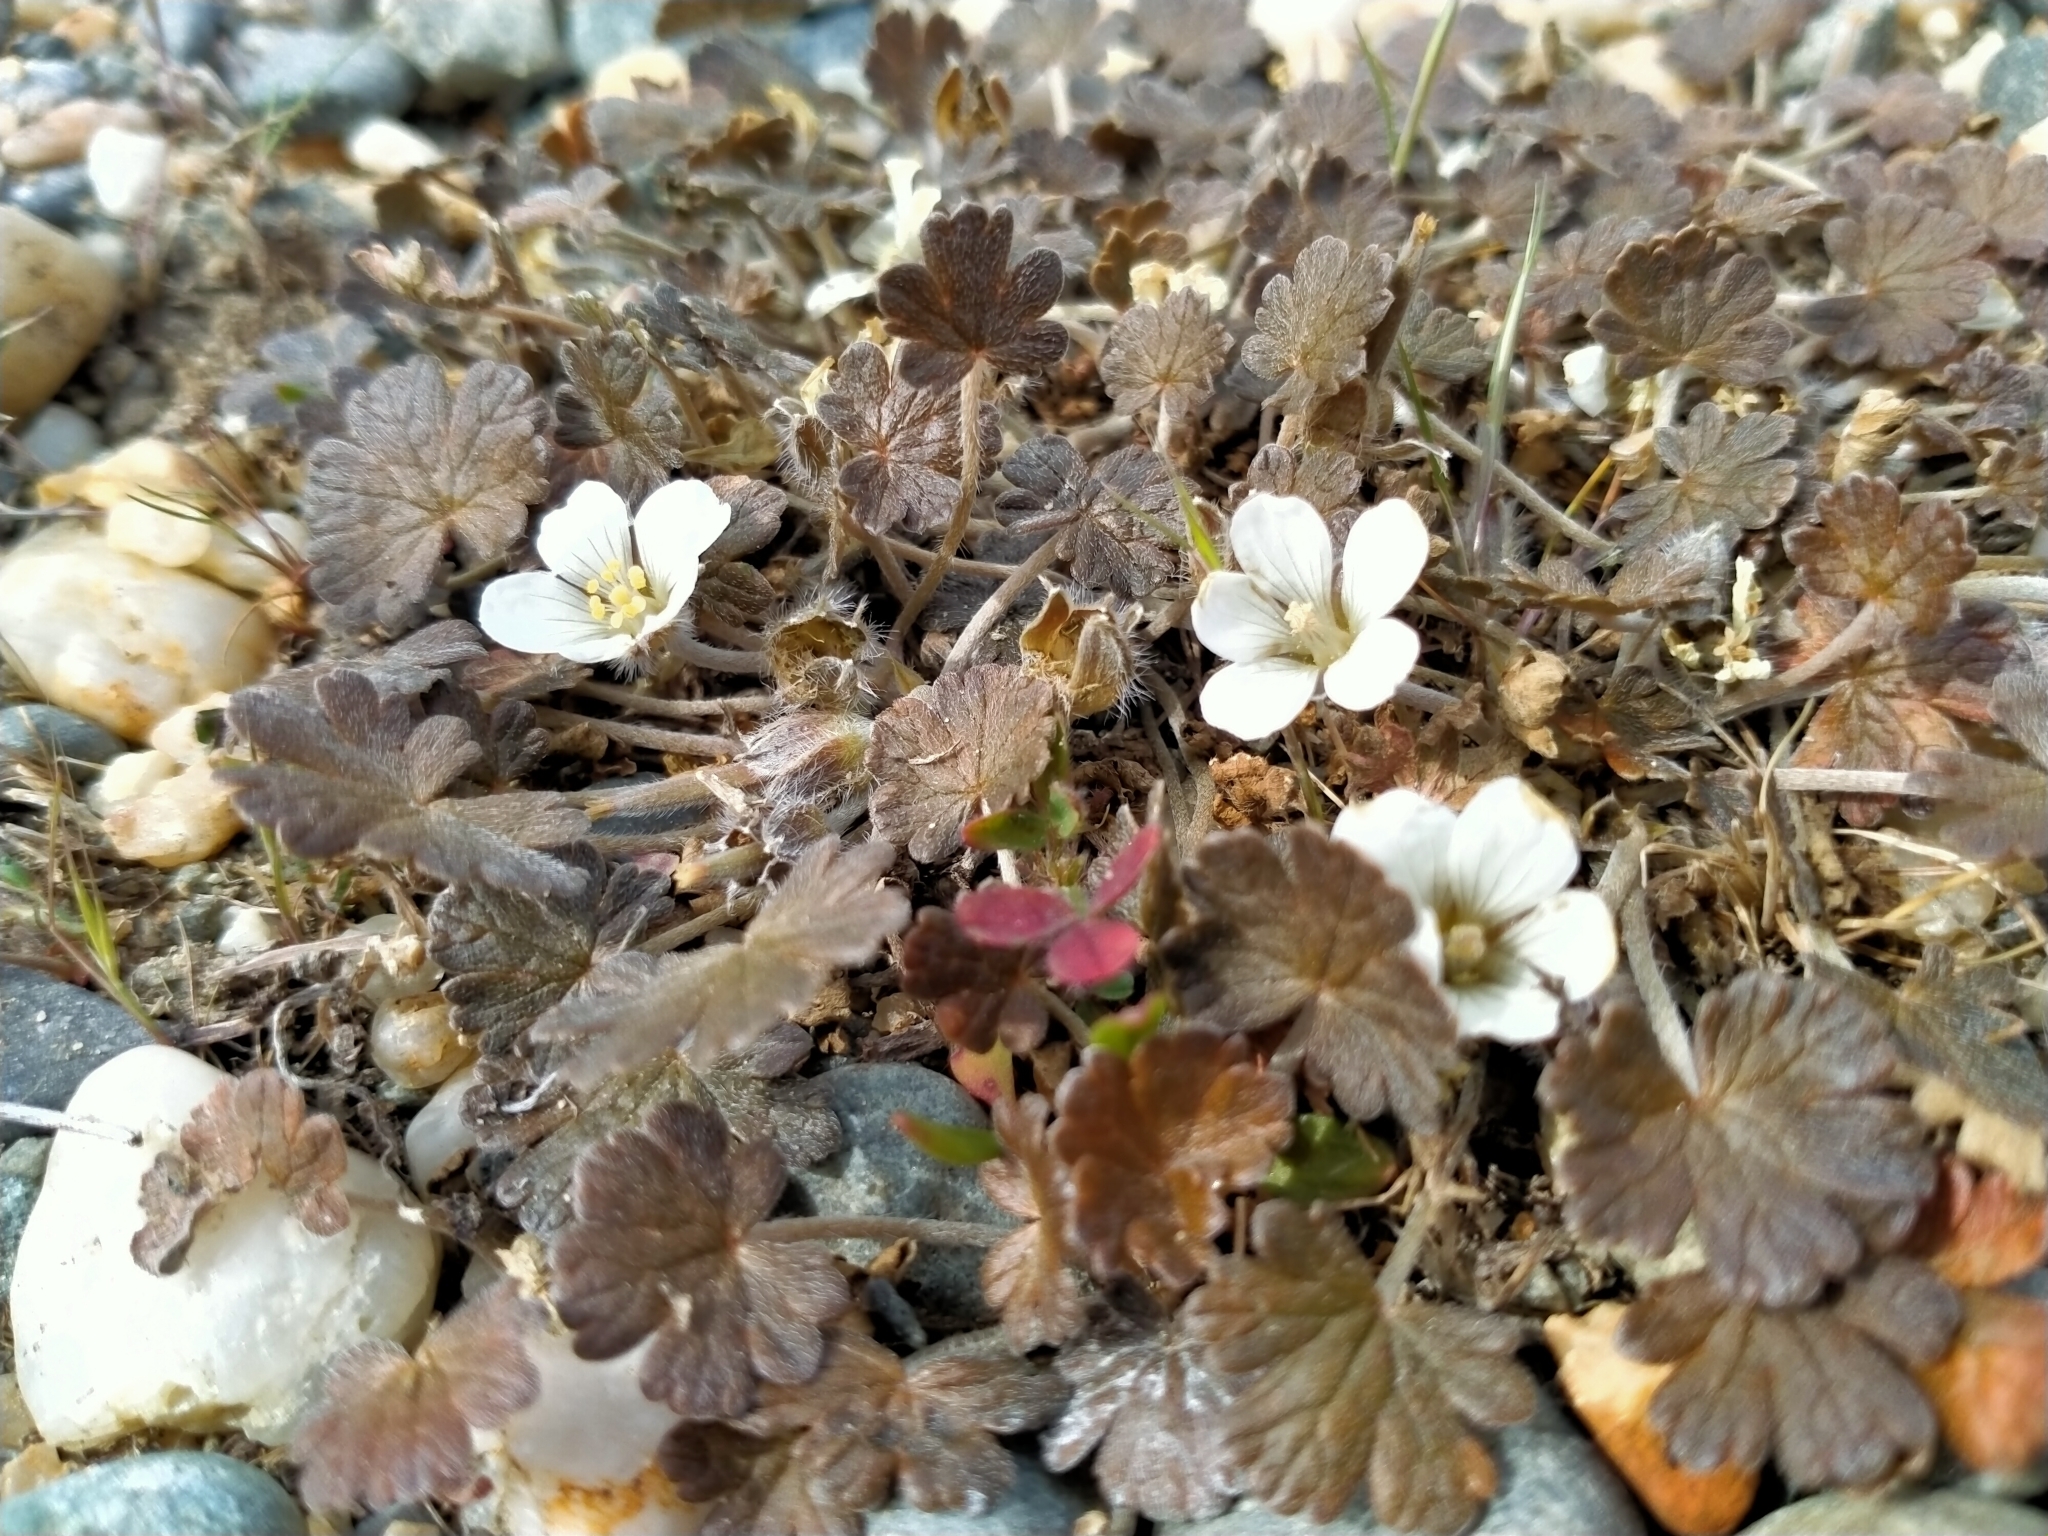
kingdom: Plantae
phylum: Tracheophyta
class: Magnoliopsida
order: Geraniales
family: Geraniaceae
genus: Geranium
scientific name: Geranium brevicaule
